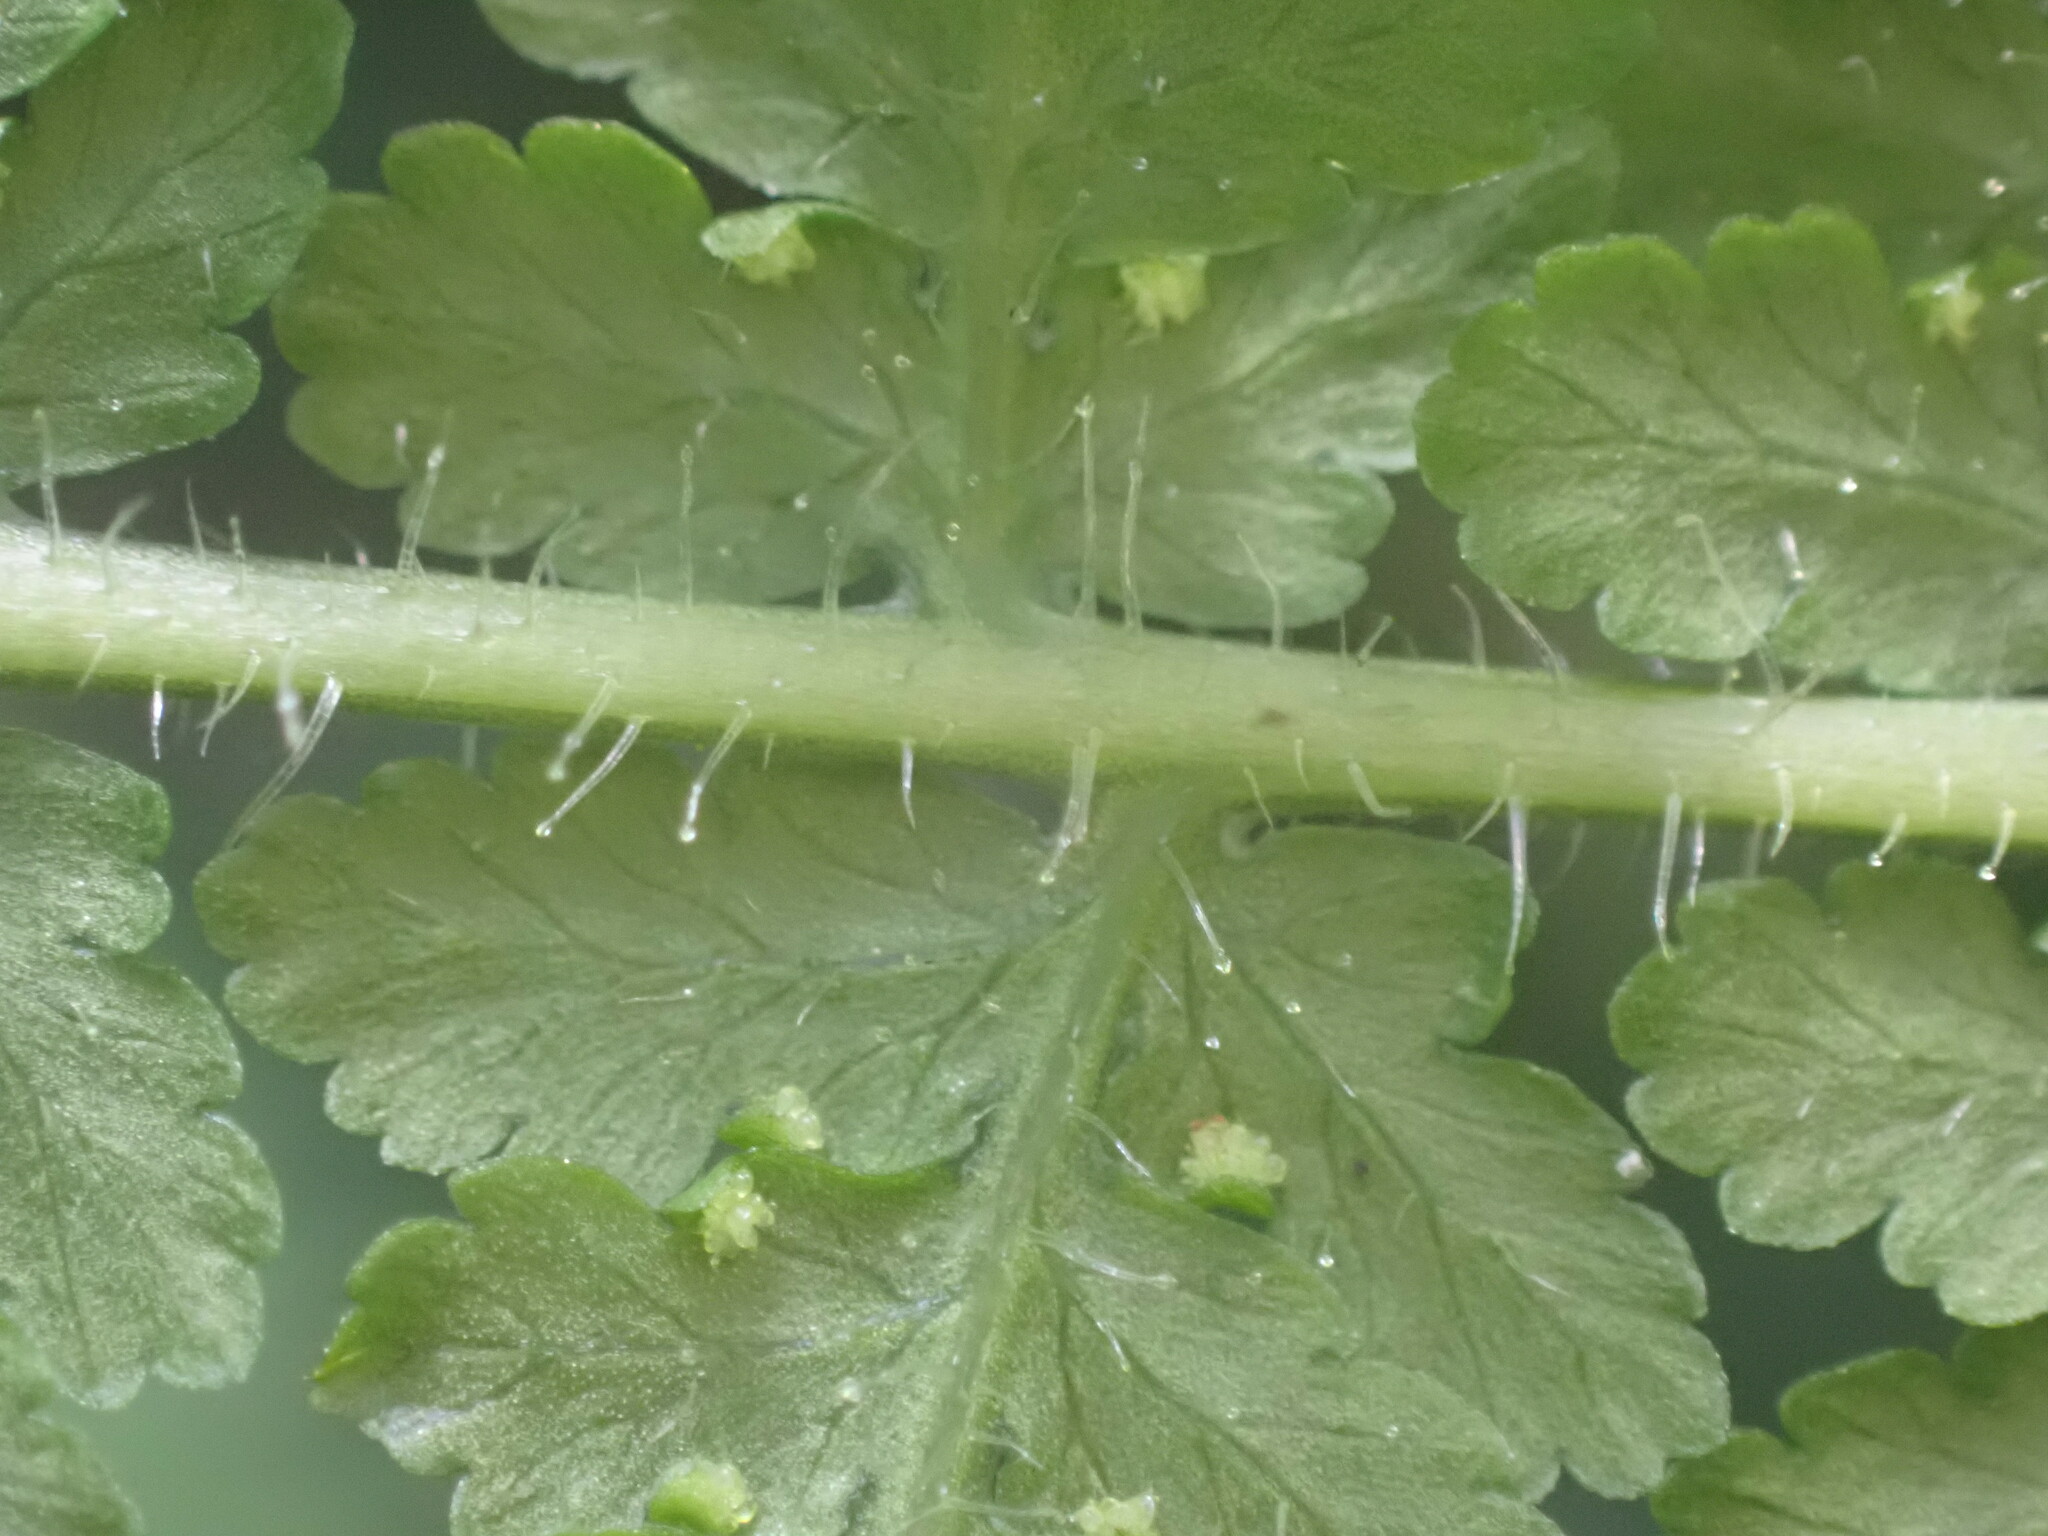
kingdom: Plantae
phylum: Tracheophyta
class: Polypodiopsida
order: Polypodiales
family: Dennstaedtiaceae
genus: Hypolepis
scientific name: Hypolepis dicksonioides
